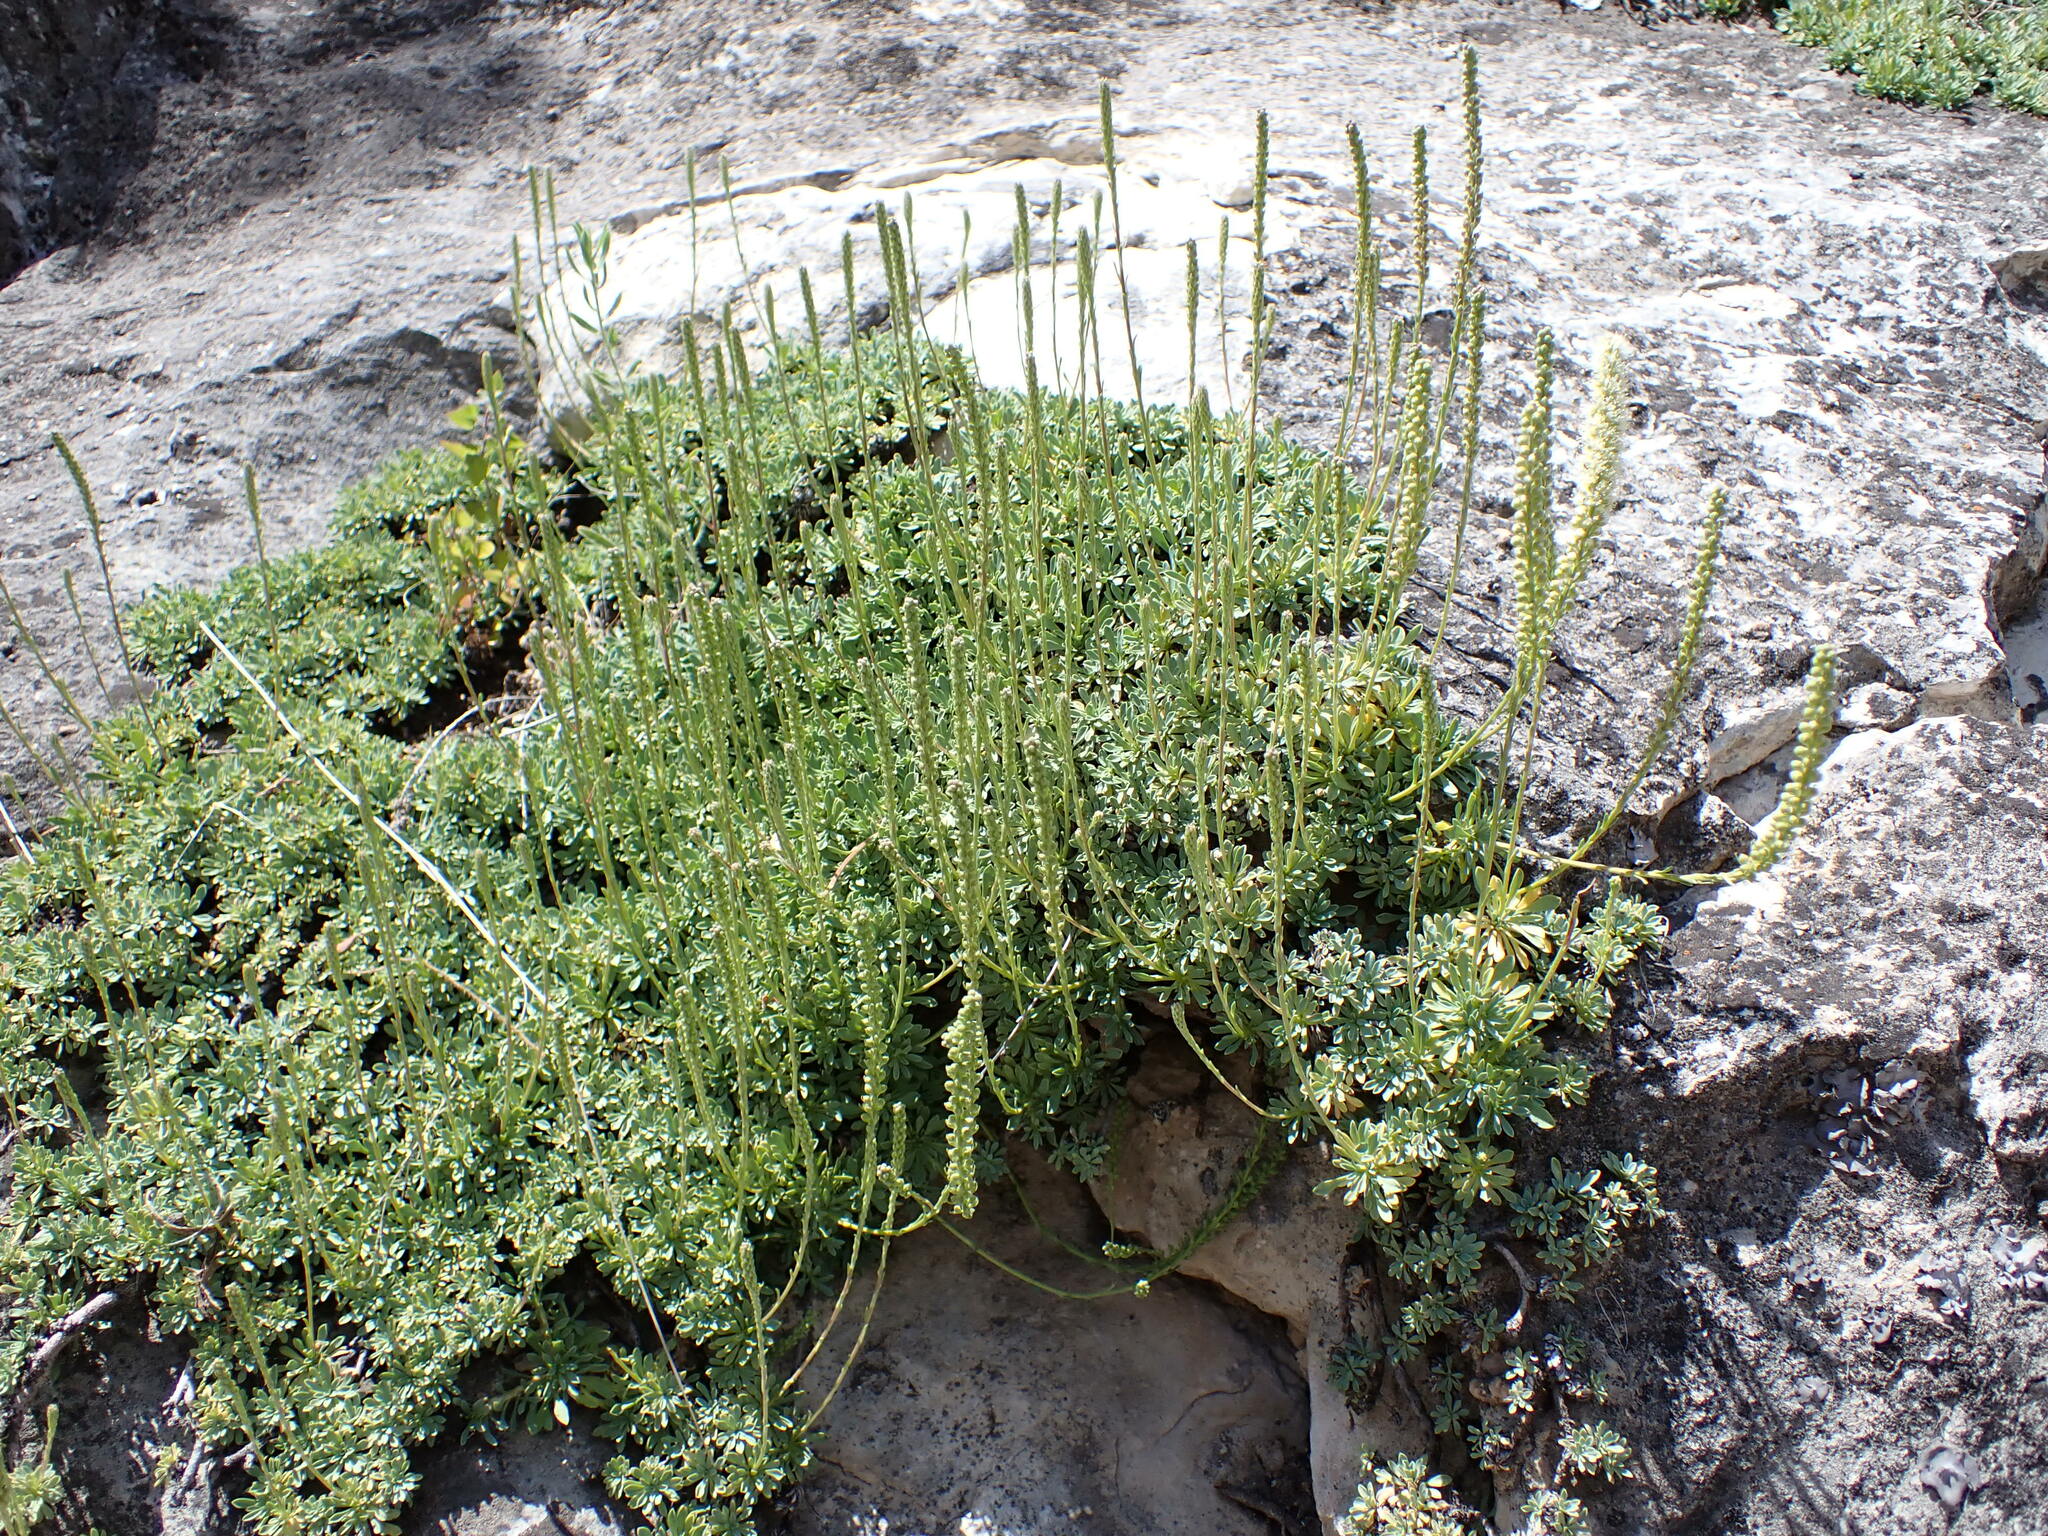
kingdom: Plantae
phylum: Tracheophyta
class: Magnoliopsida
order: Rosales
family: Rosaceae
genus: Petrophytum
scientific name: Petrophytum caespitosum
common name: Mat rockspirea
